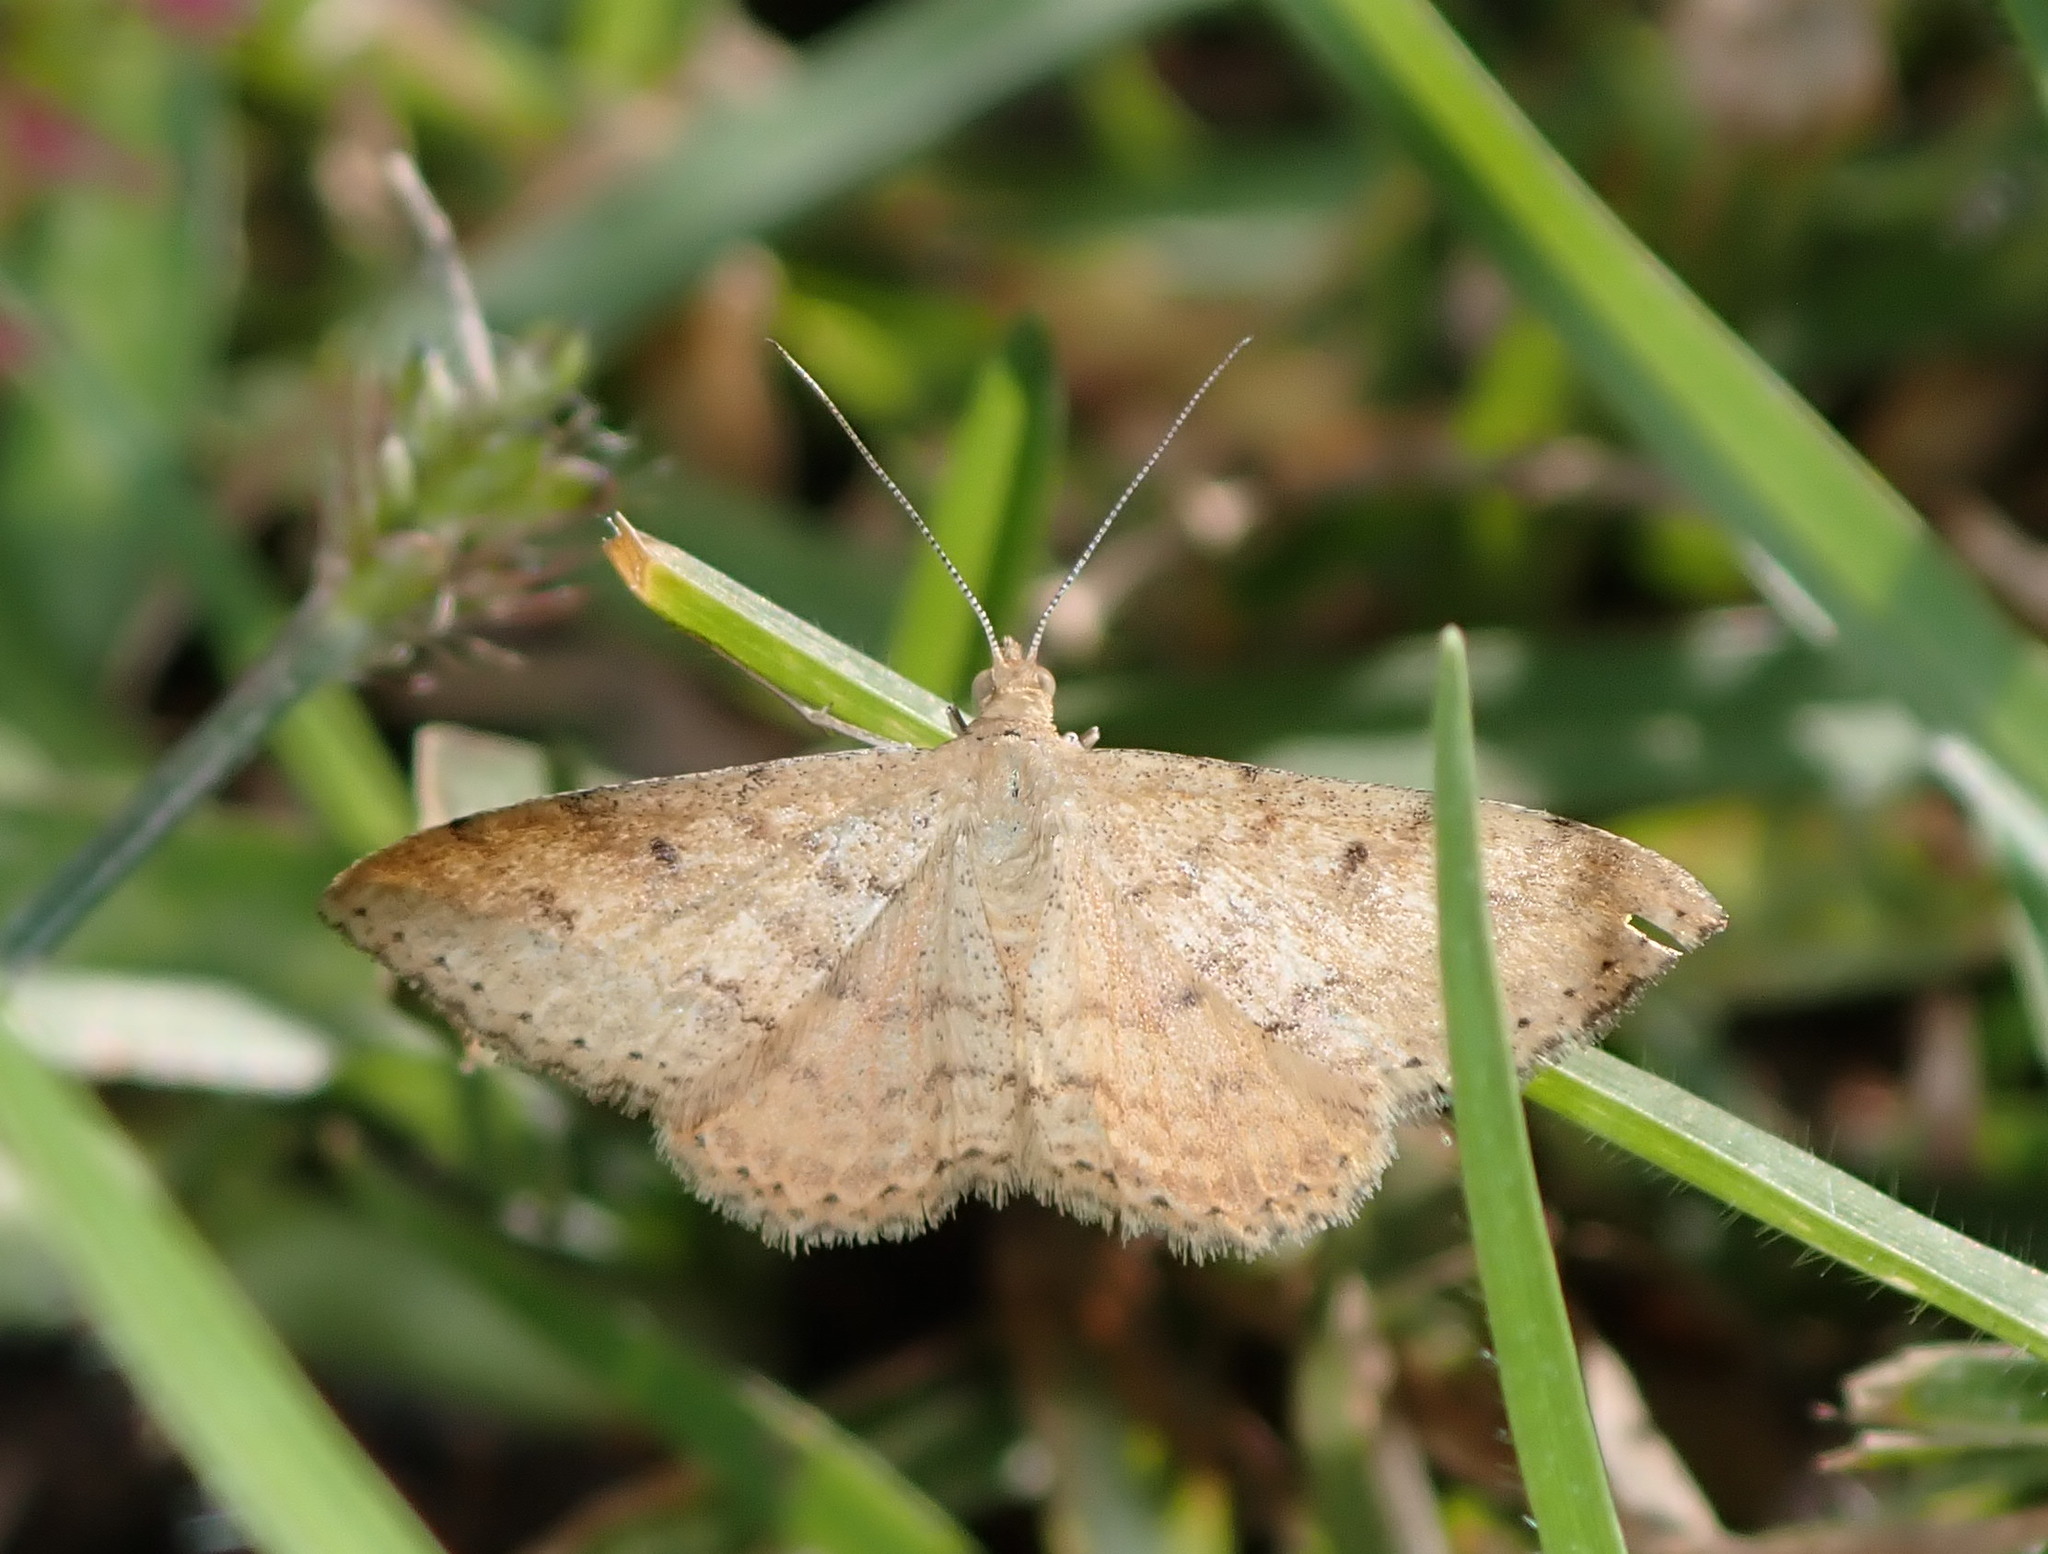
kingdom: Animalia
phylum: Arthropoda
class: Insecta
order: Lepidoptera
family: Geometridae
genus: Scopula
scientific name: Scopula rubraria
